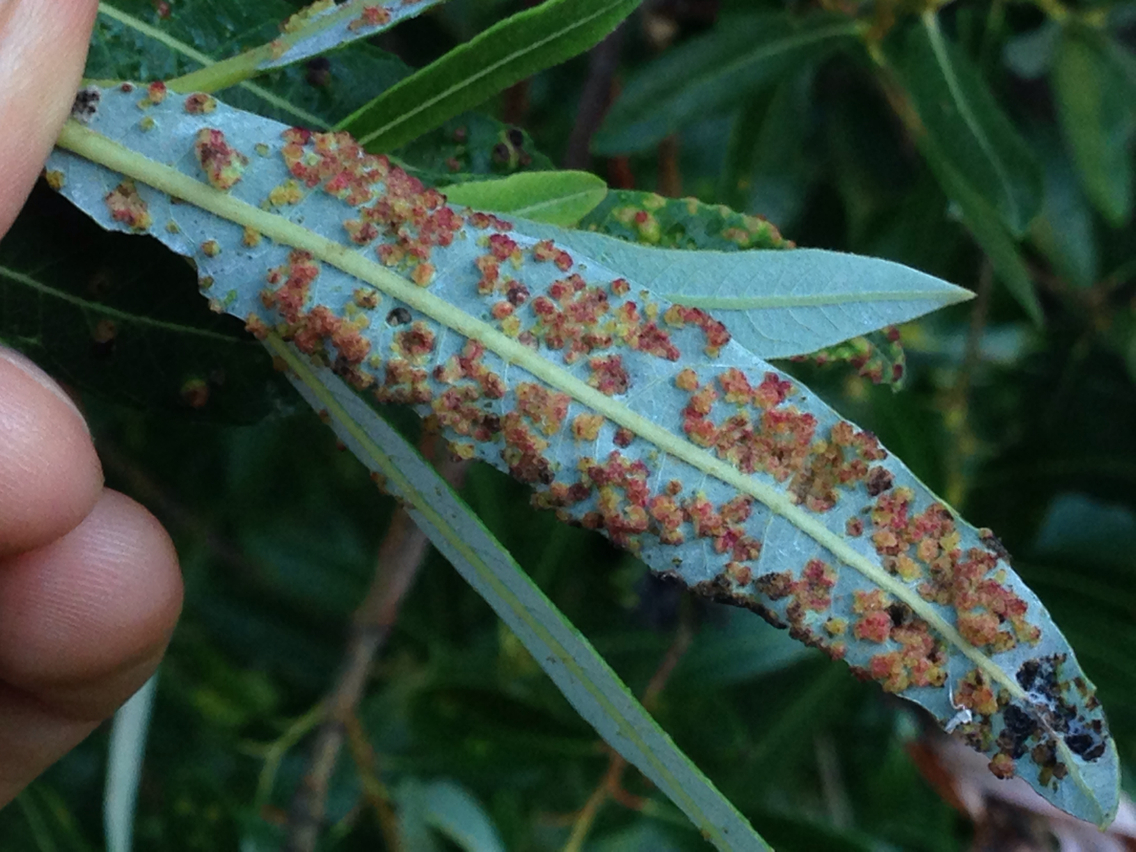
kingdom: Animalia
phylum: Arthropoda
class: Arachnida
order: Trombidiformes
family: Eriophyidae
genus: Aculus
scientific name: Aculus tetanothrix
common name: Willow bead gall mite
